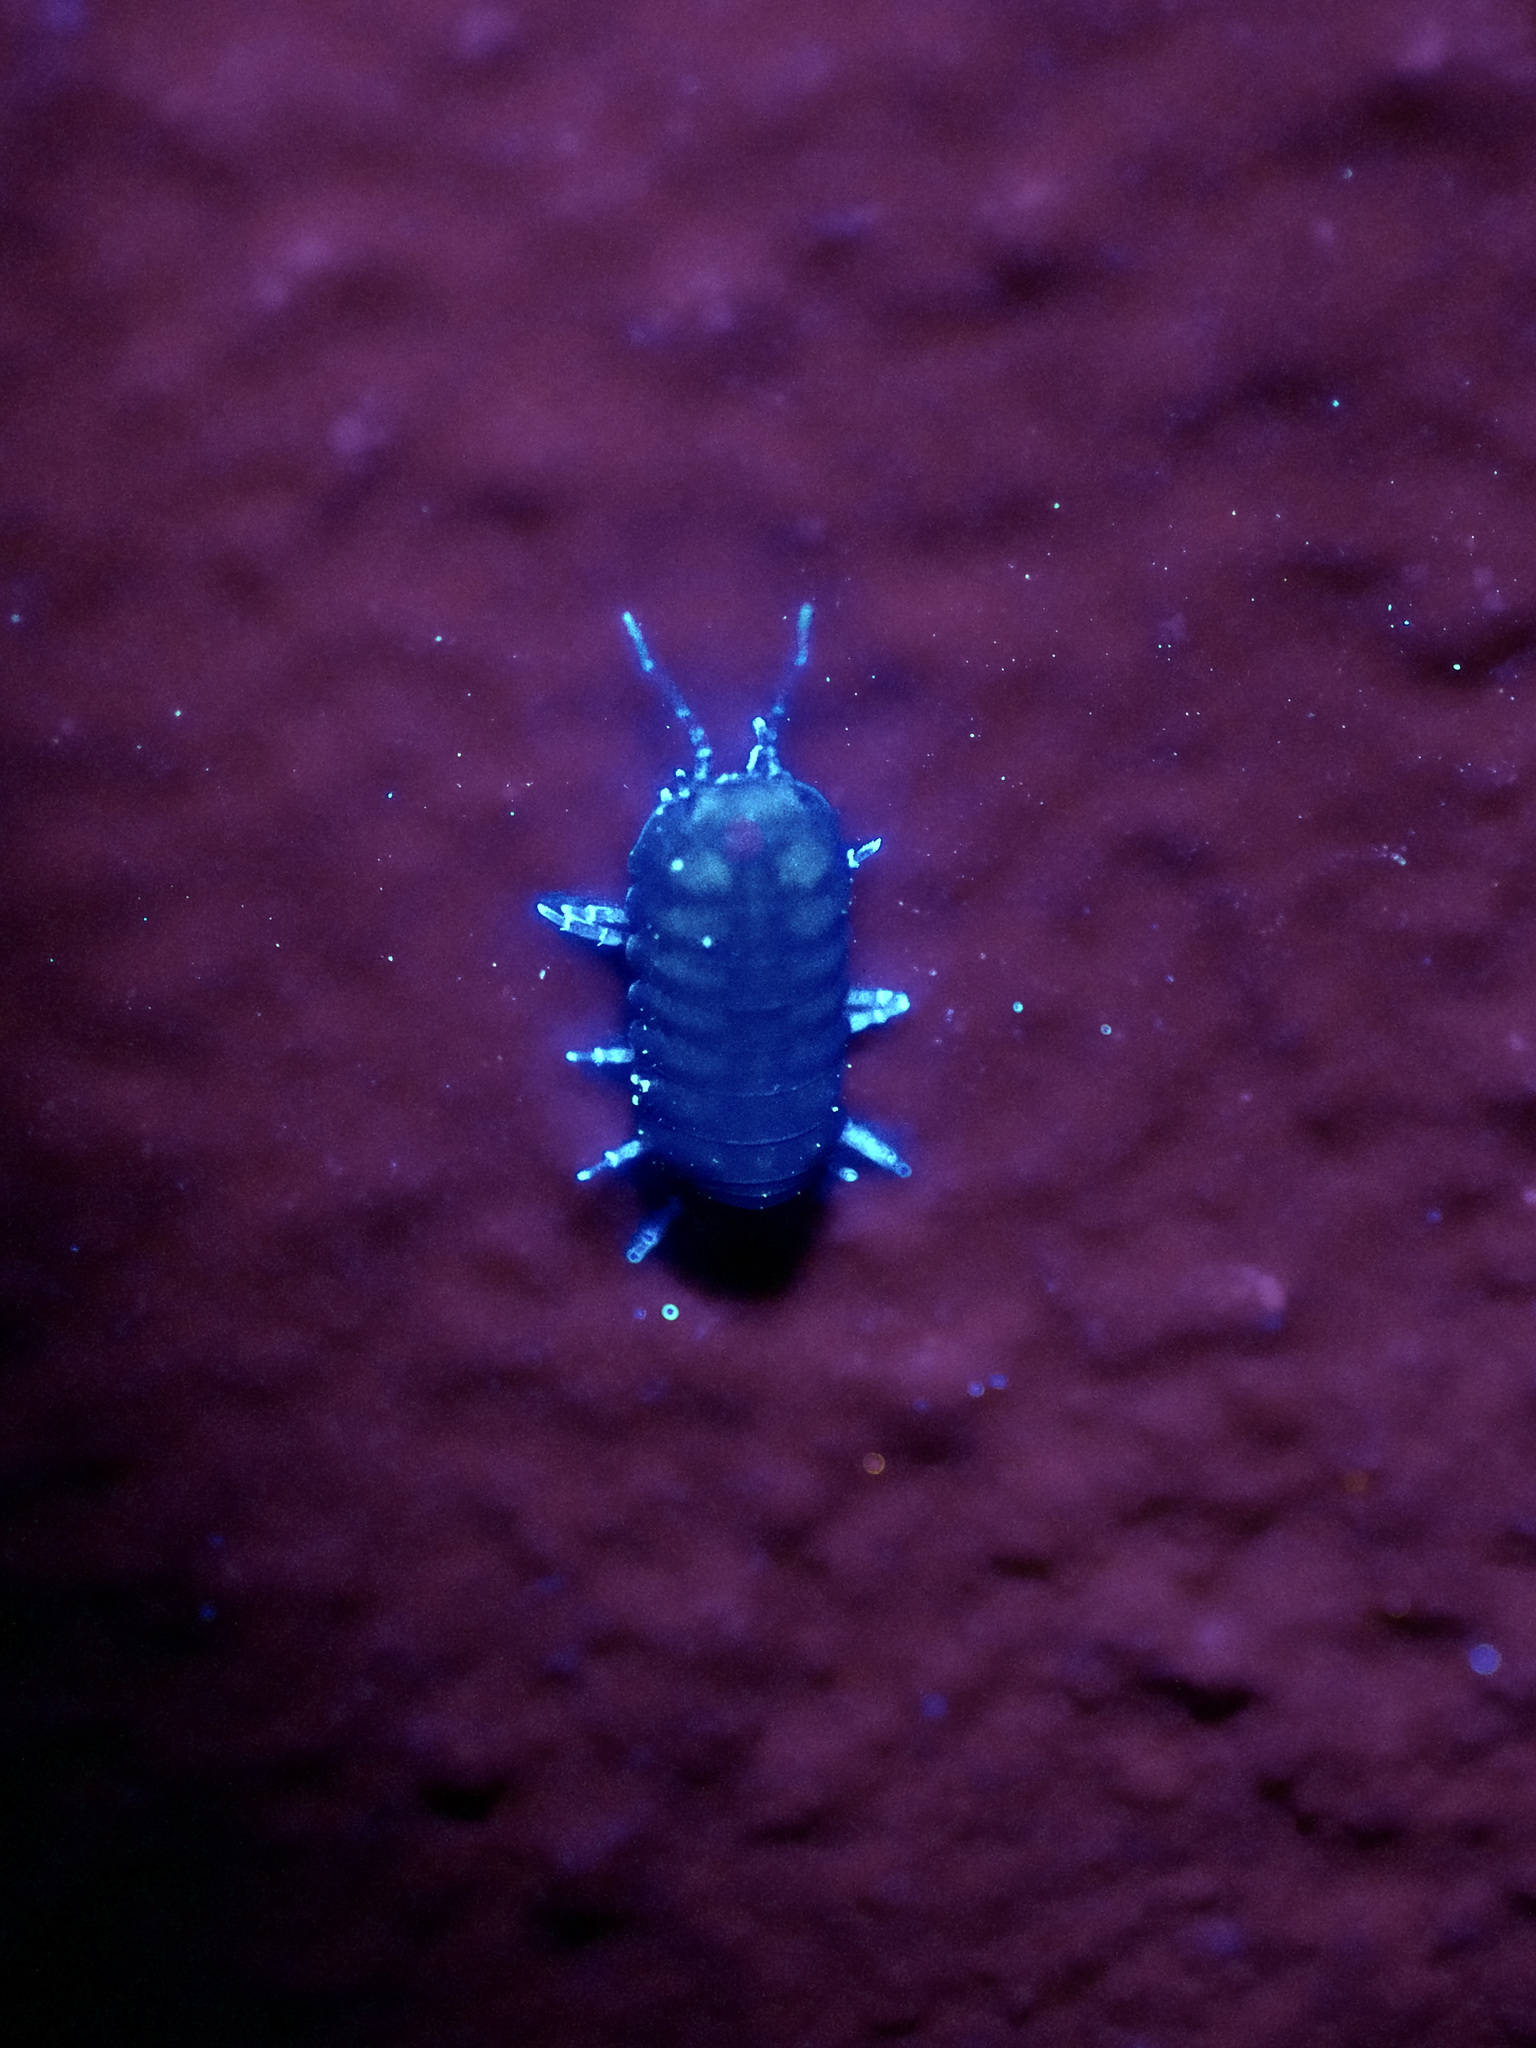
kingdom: Animalia
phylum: Arthropoda
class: Malacostraca
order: Isopoda
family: Armadillidae
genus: Venezillo
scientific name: Venezillo tanneri
